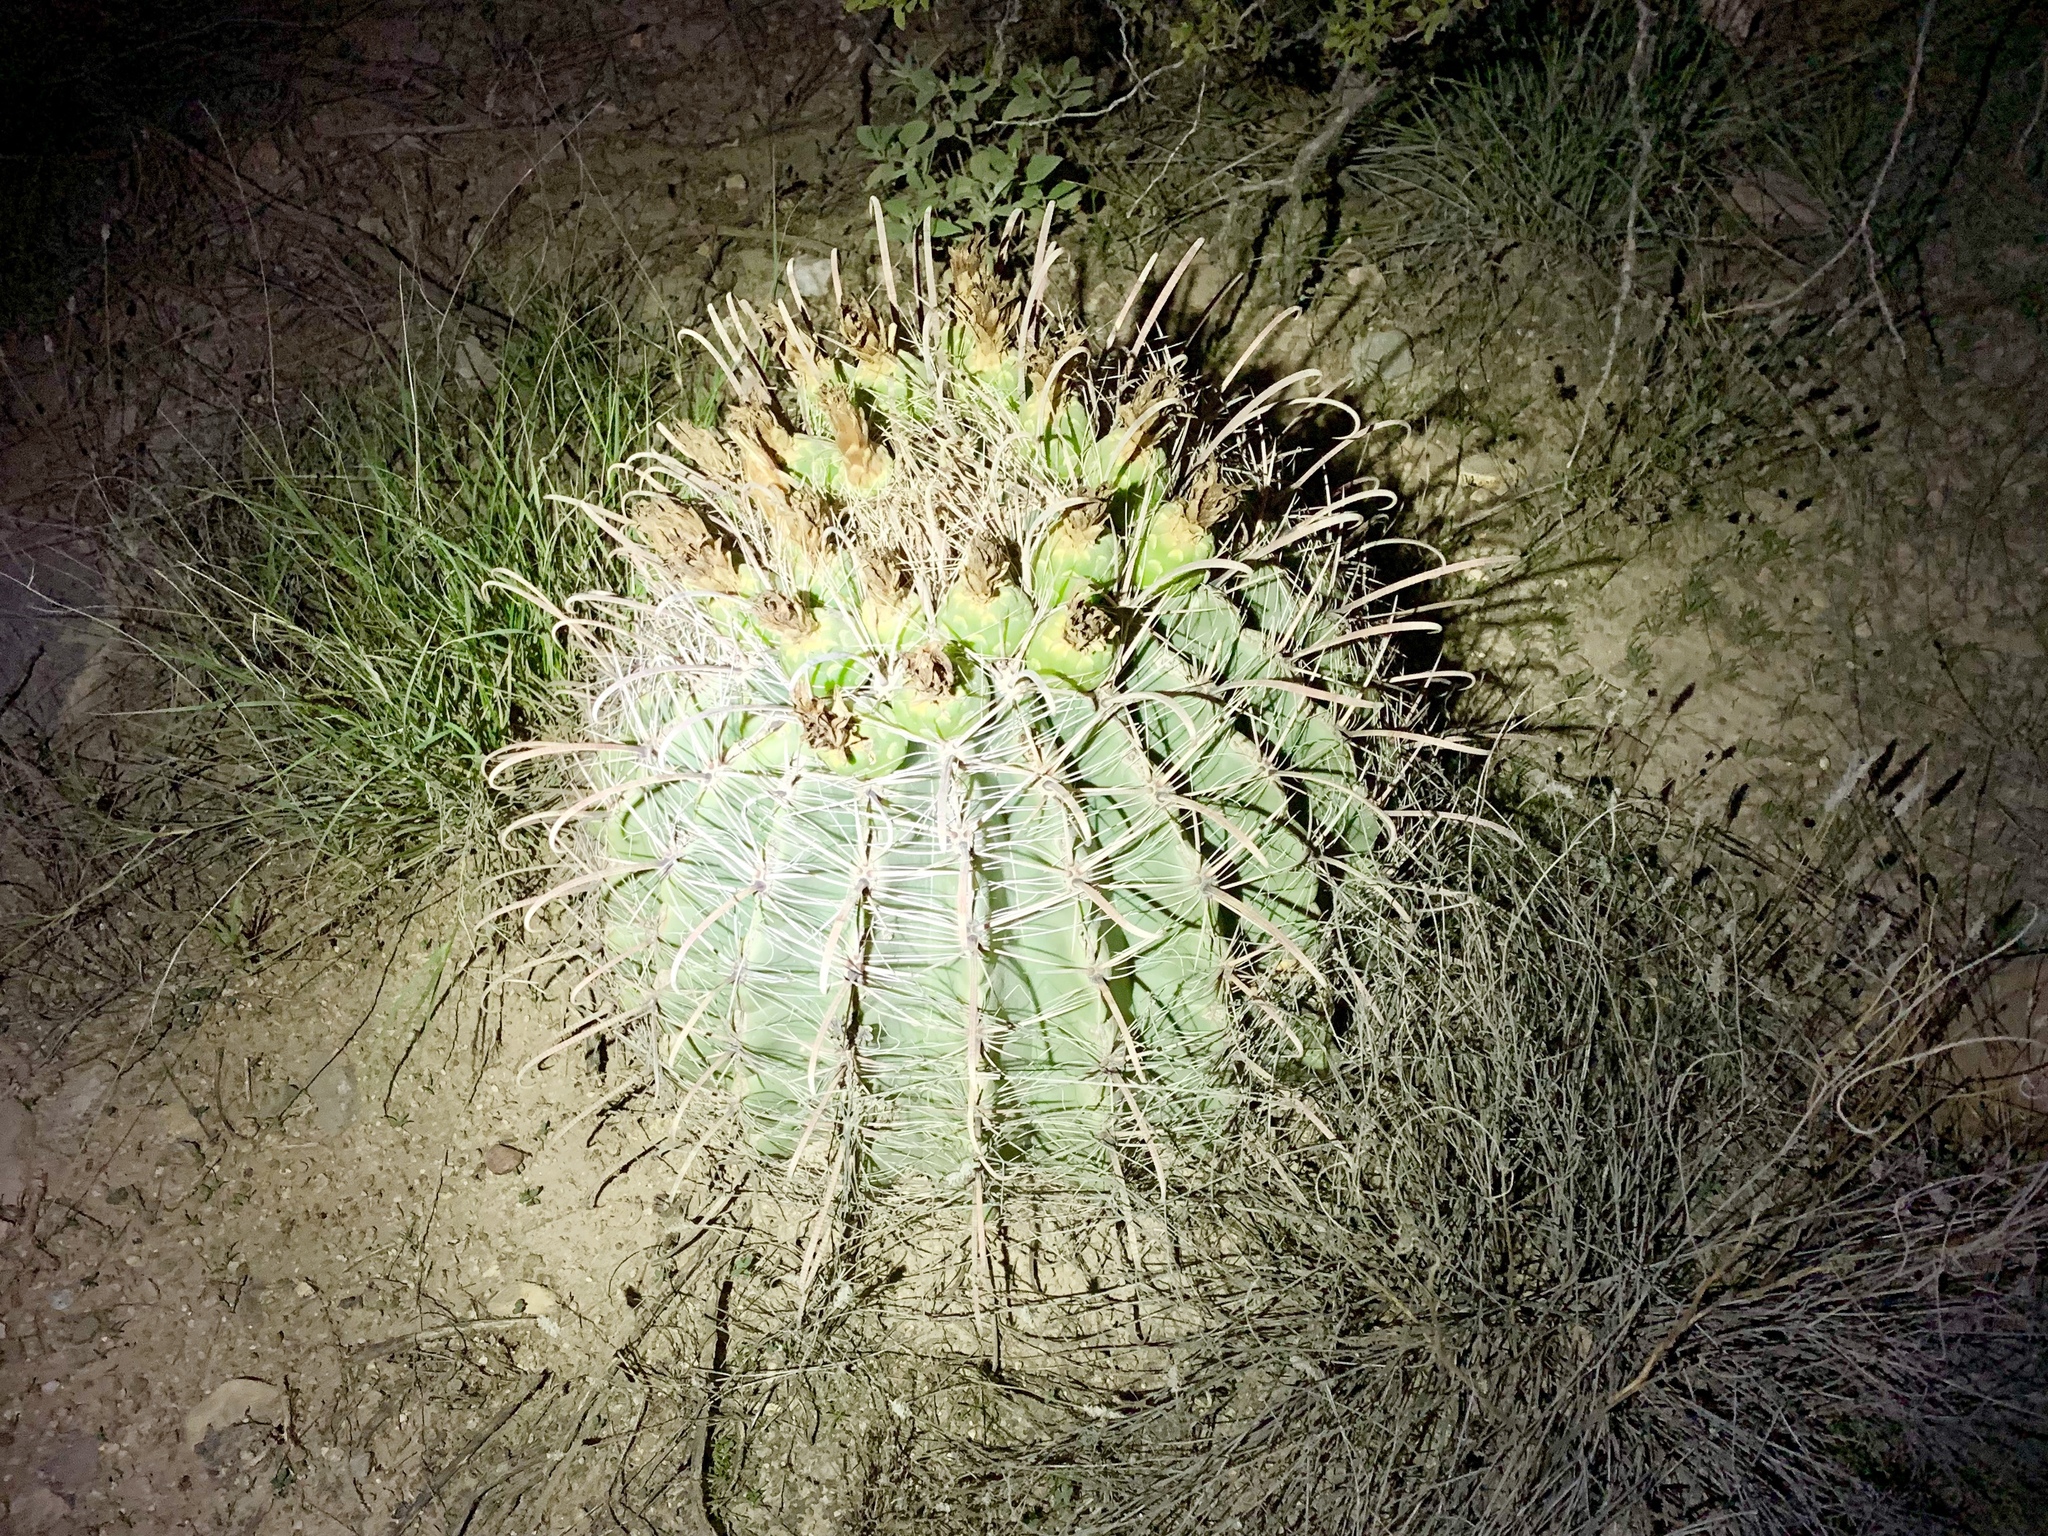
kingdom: Plantae
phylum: Tracheophyta
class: Magnoliopsida
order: Caryophyllales
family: Cactaceae
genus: Ferocactus
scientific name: Ferocactus wislizeni
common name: Candy barrel cactus
